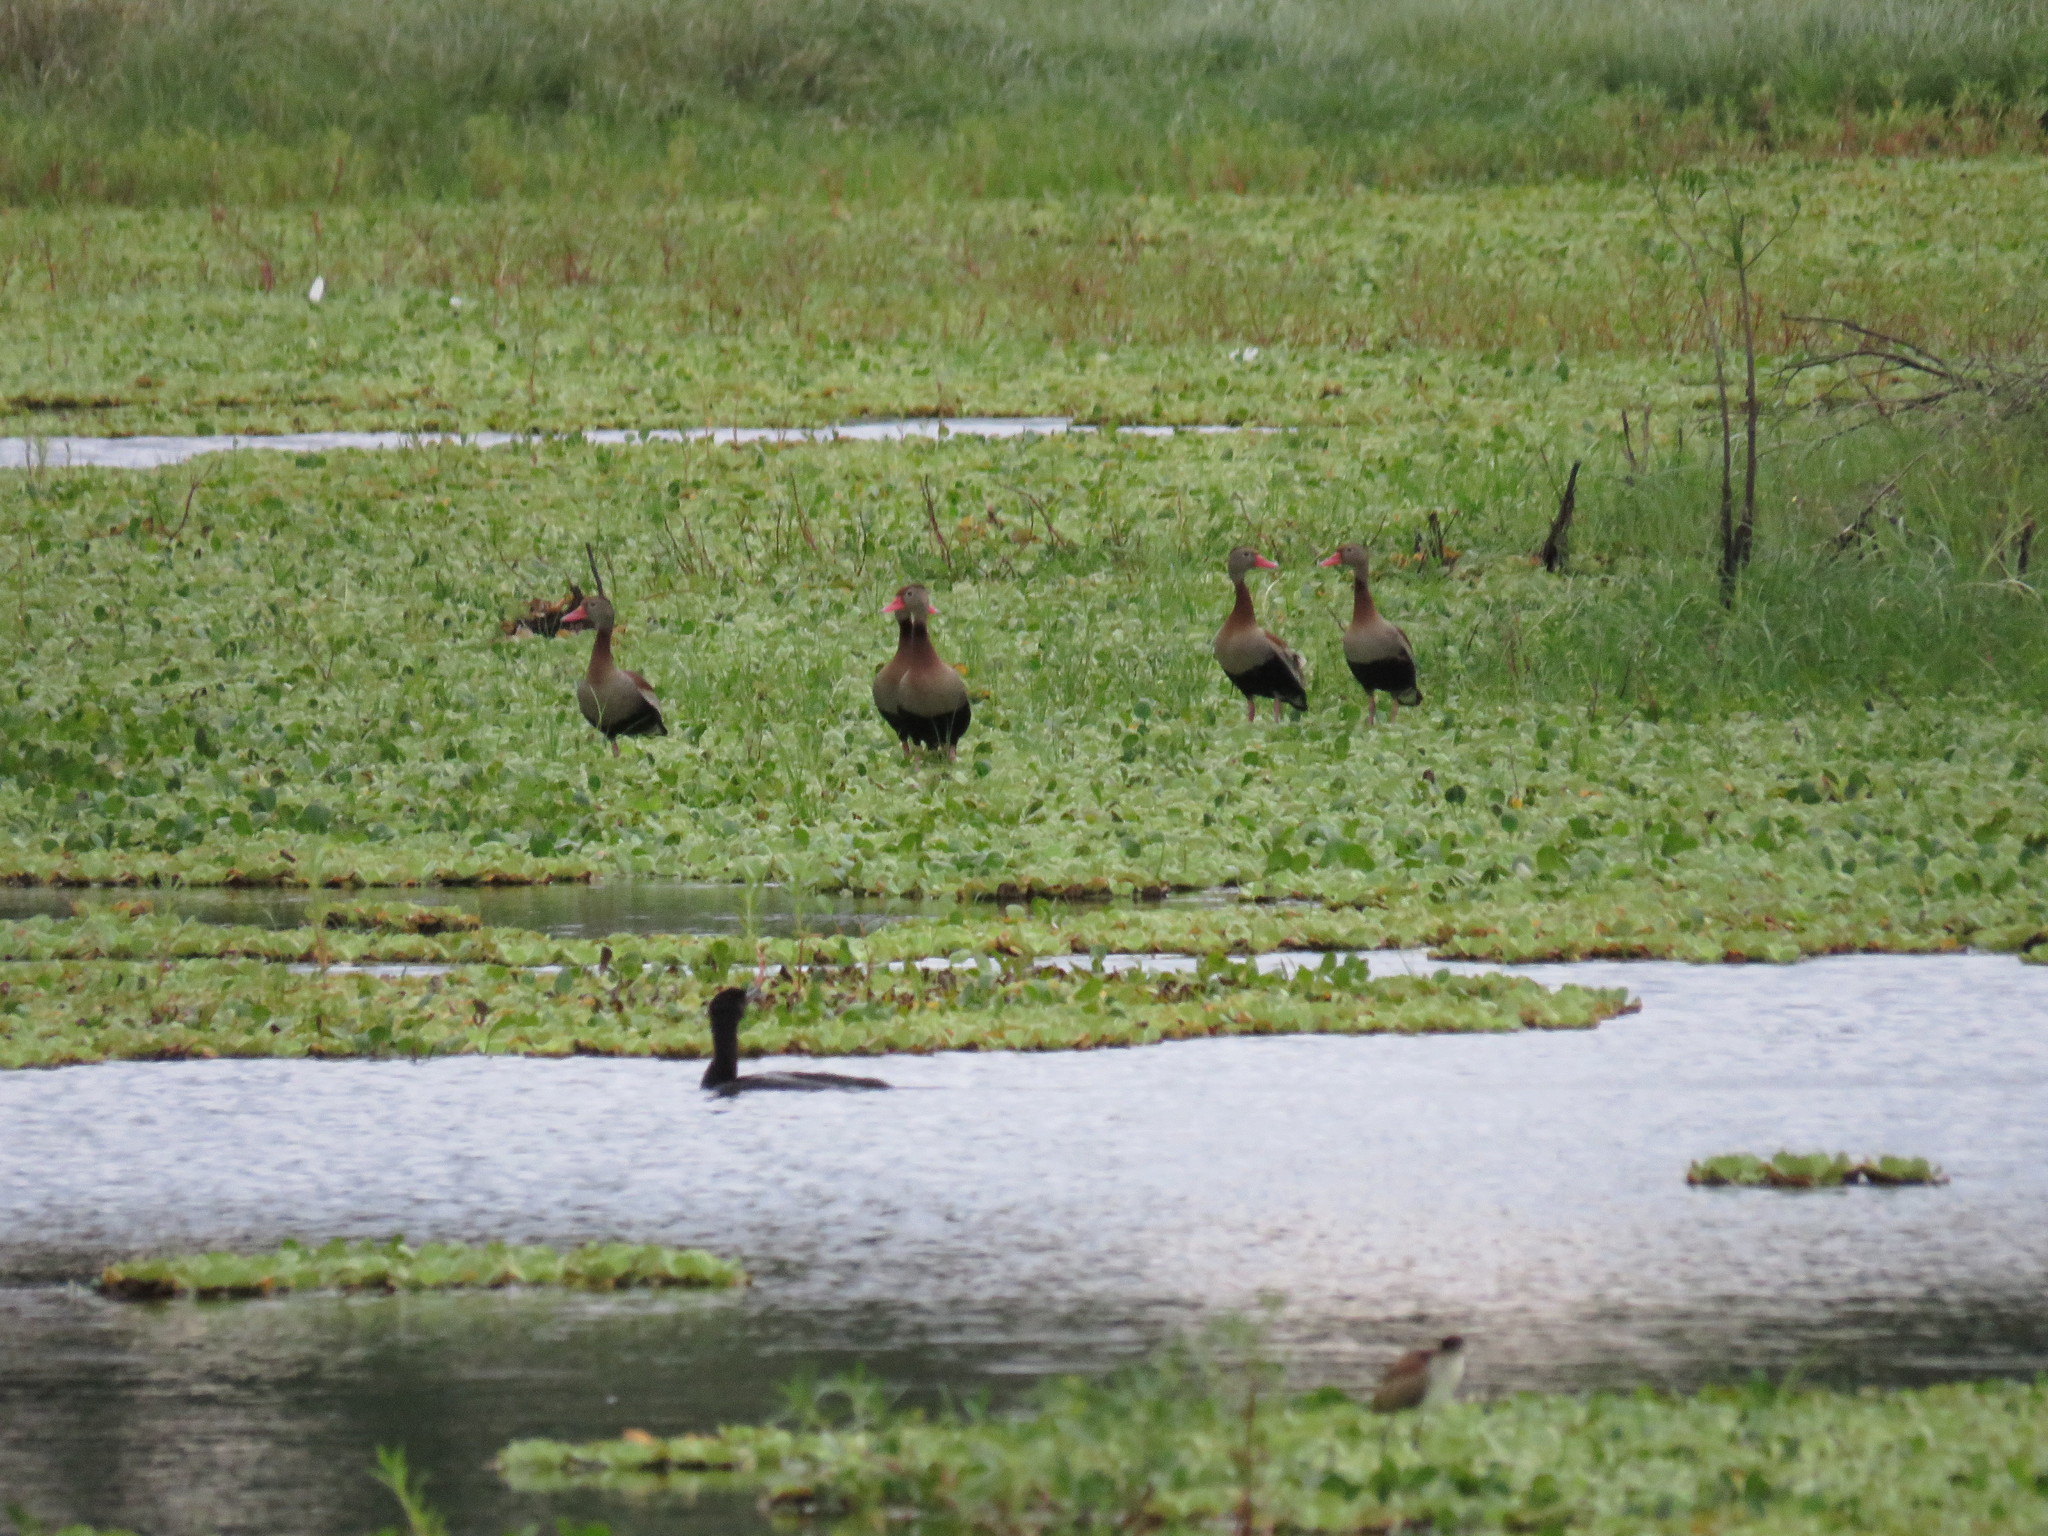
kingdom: Animalia
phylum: Chordata
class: Aves
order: Anseriformes
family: Anatidae
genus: Dendrocygna
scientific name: Dendrocygna autumnalis
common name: Black-bellied whistling duck
